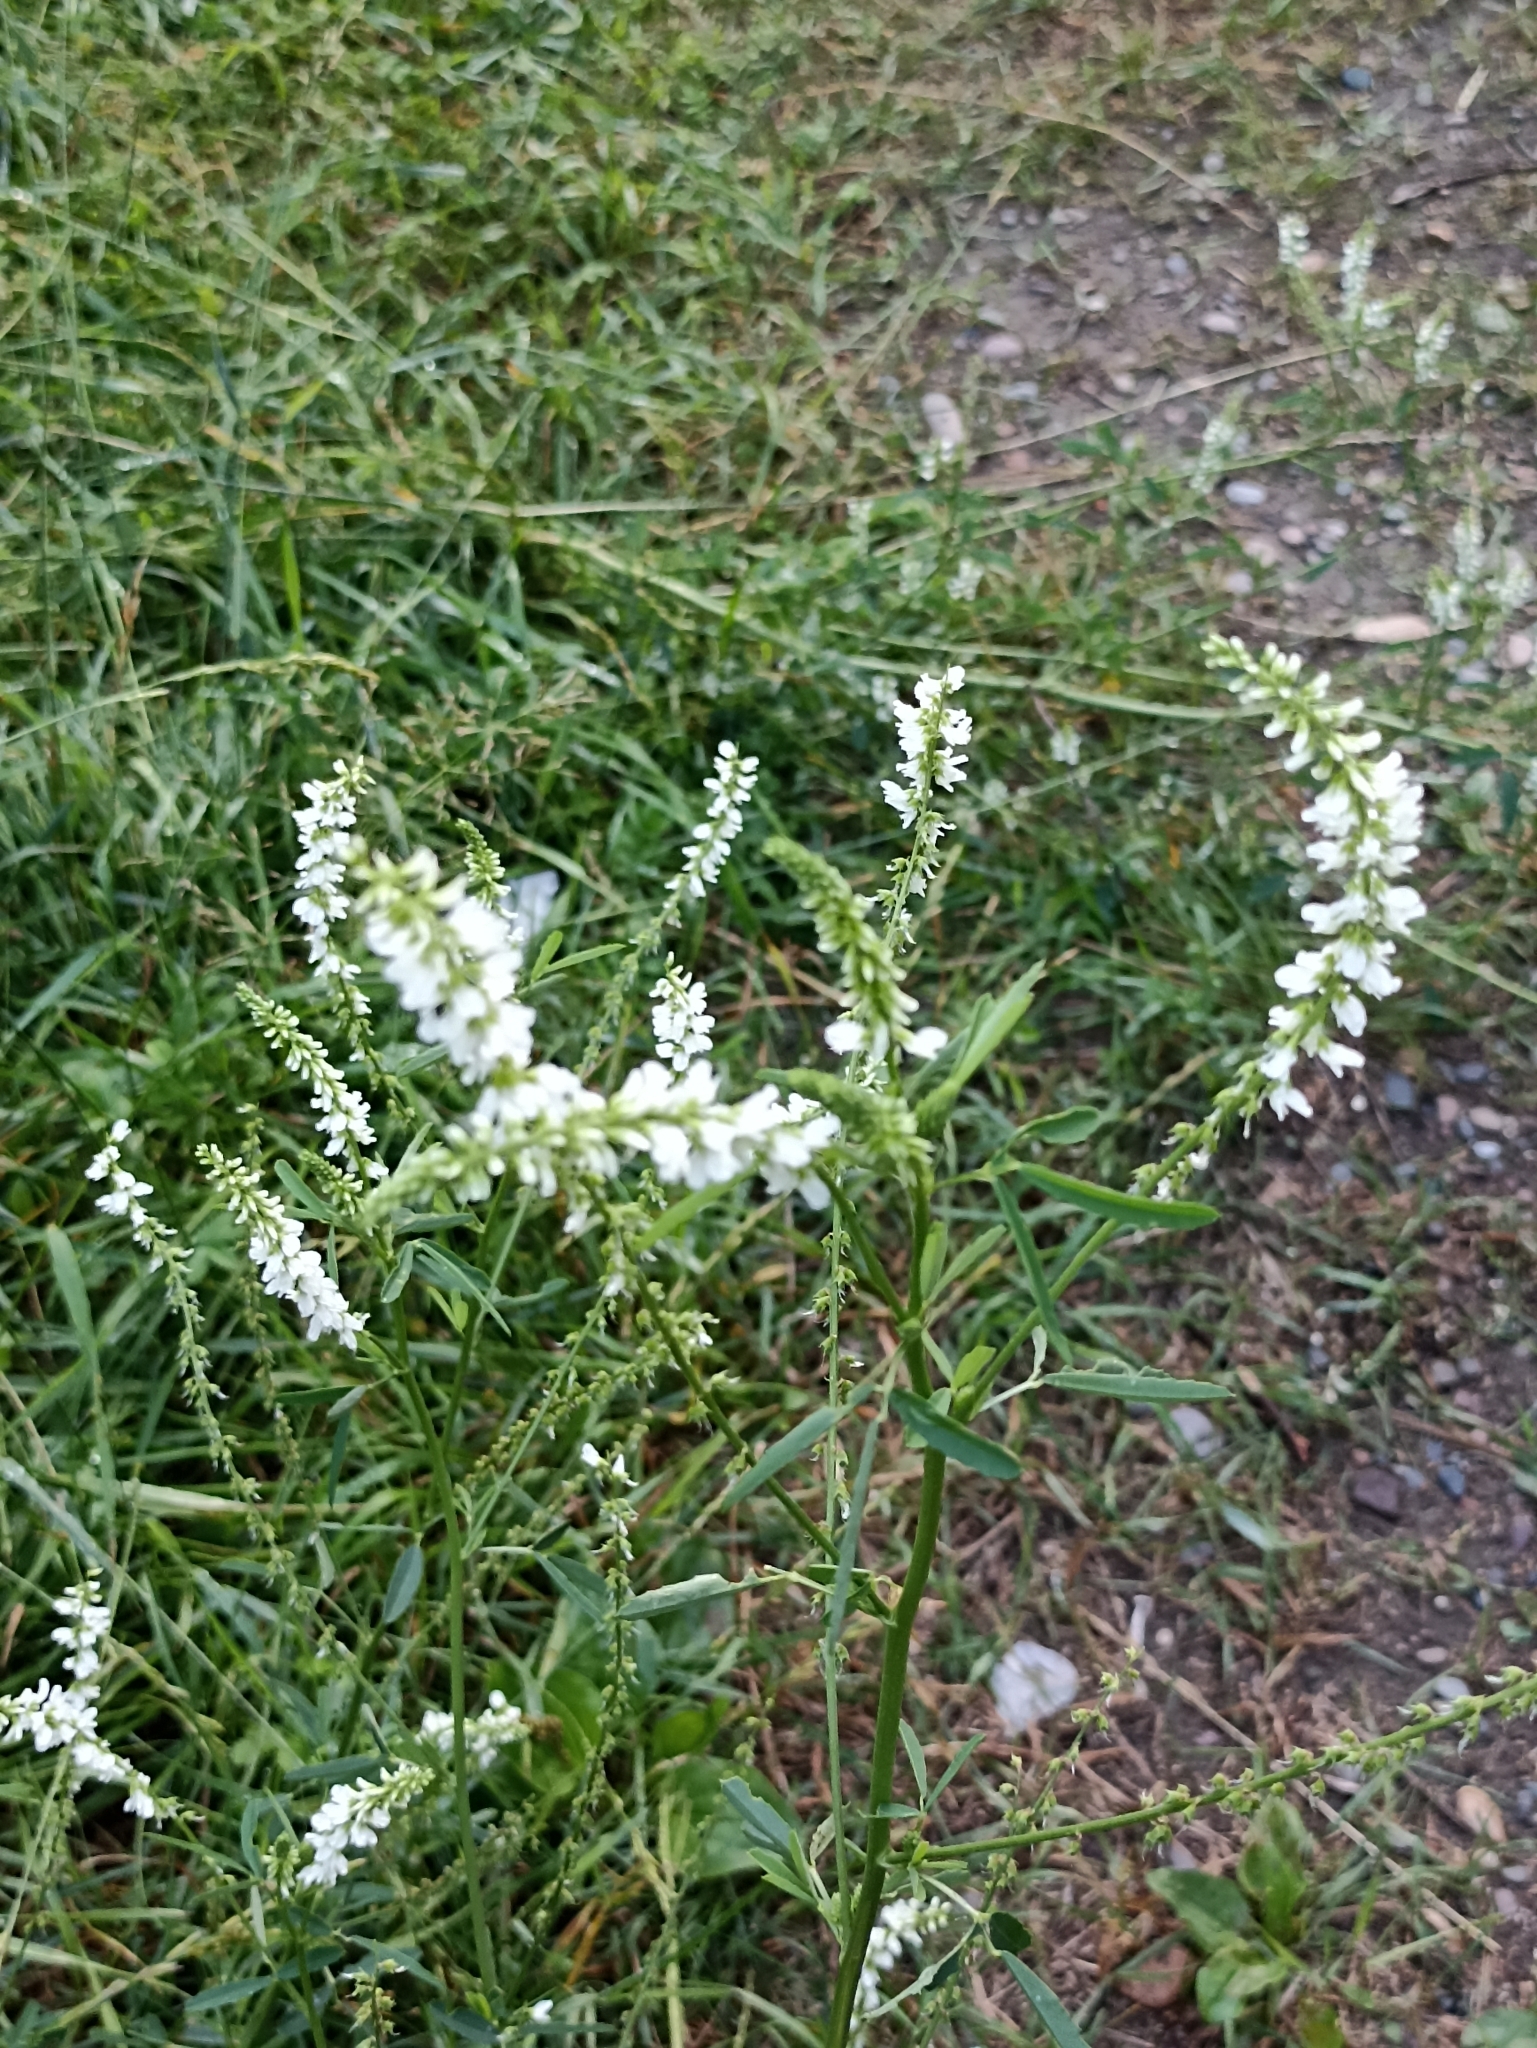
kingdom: Plantae
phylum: Tracheophyta
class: Magnoliopsida
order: Fabales
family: Fabaceae
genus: Melilotus
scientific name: Melilotus albus
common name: White melilot
